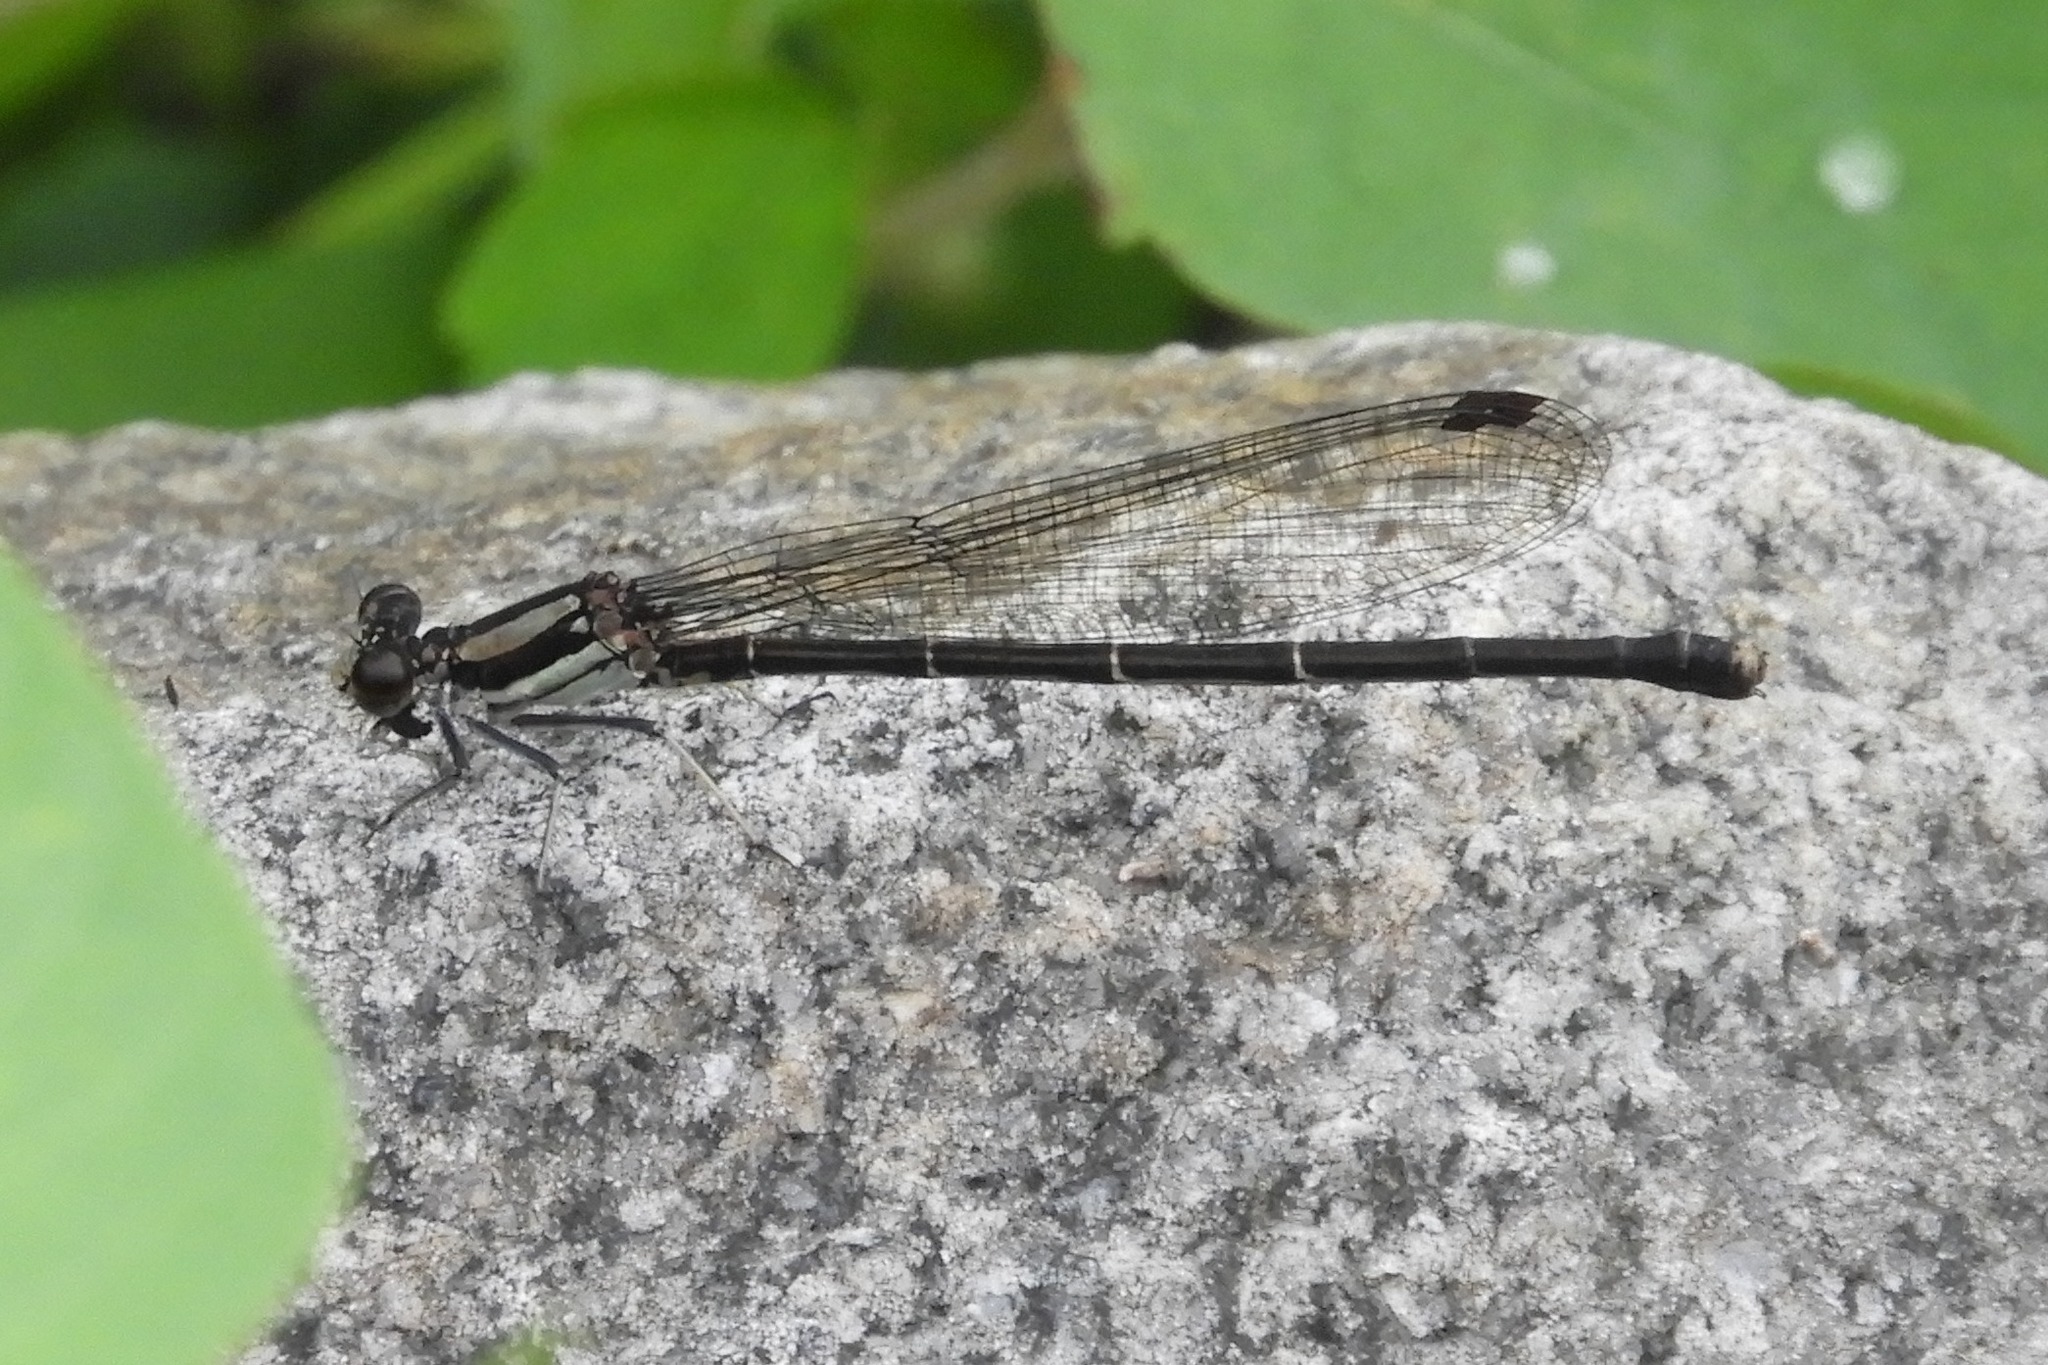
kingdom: Animalia
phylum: Arthropoda
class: Insecta
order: Odonata
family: Coenagrionidae
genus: Argia
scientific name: Argia tibialis
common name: Blue-tipped dancer
